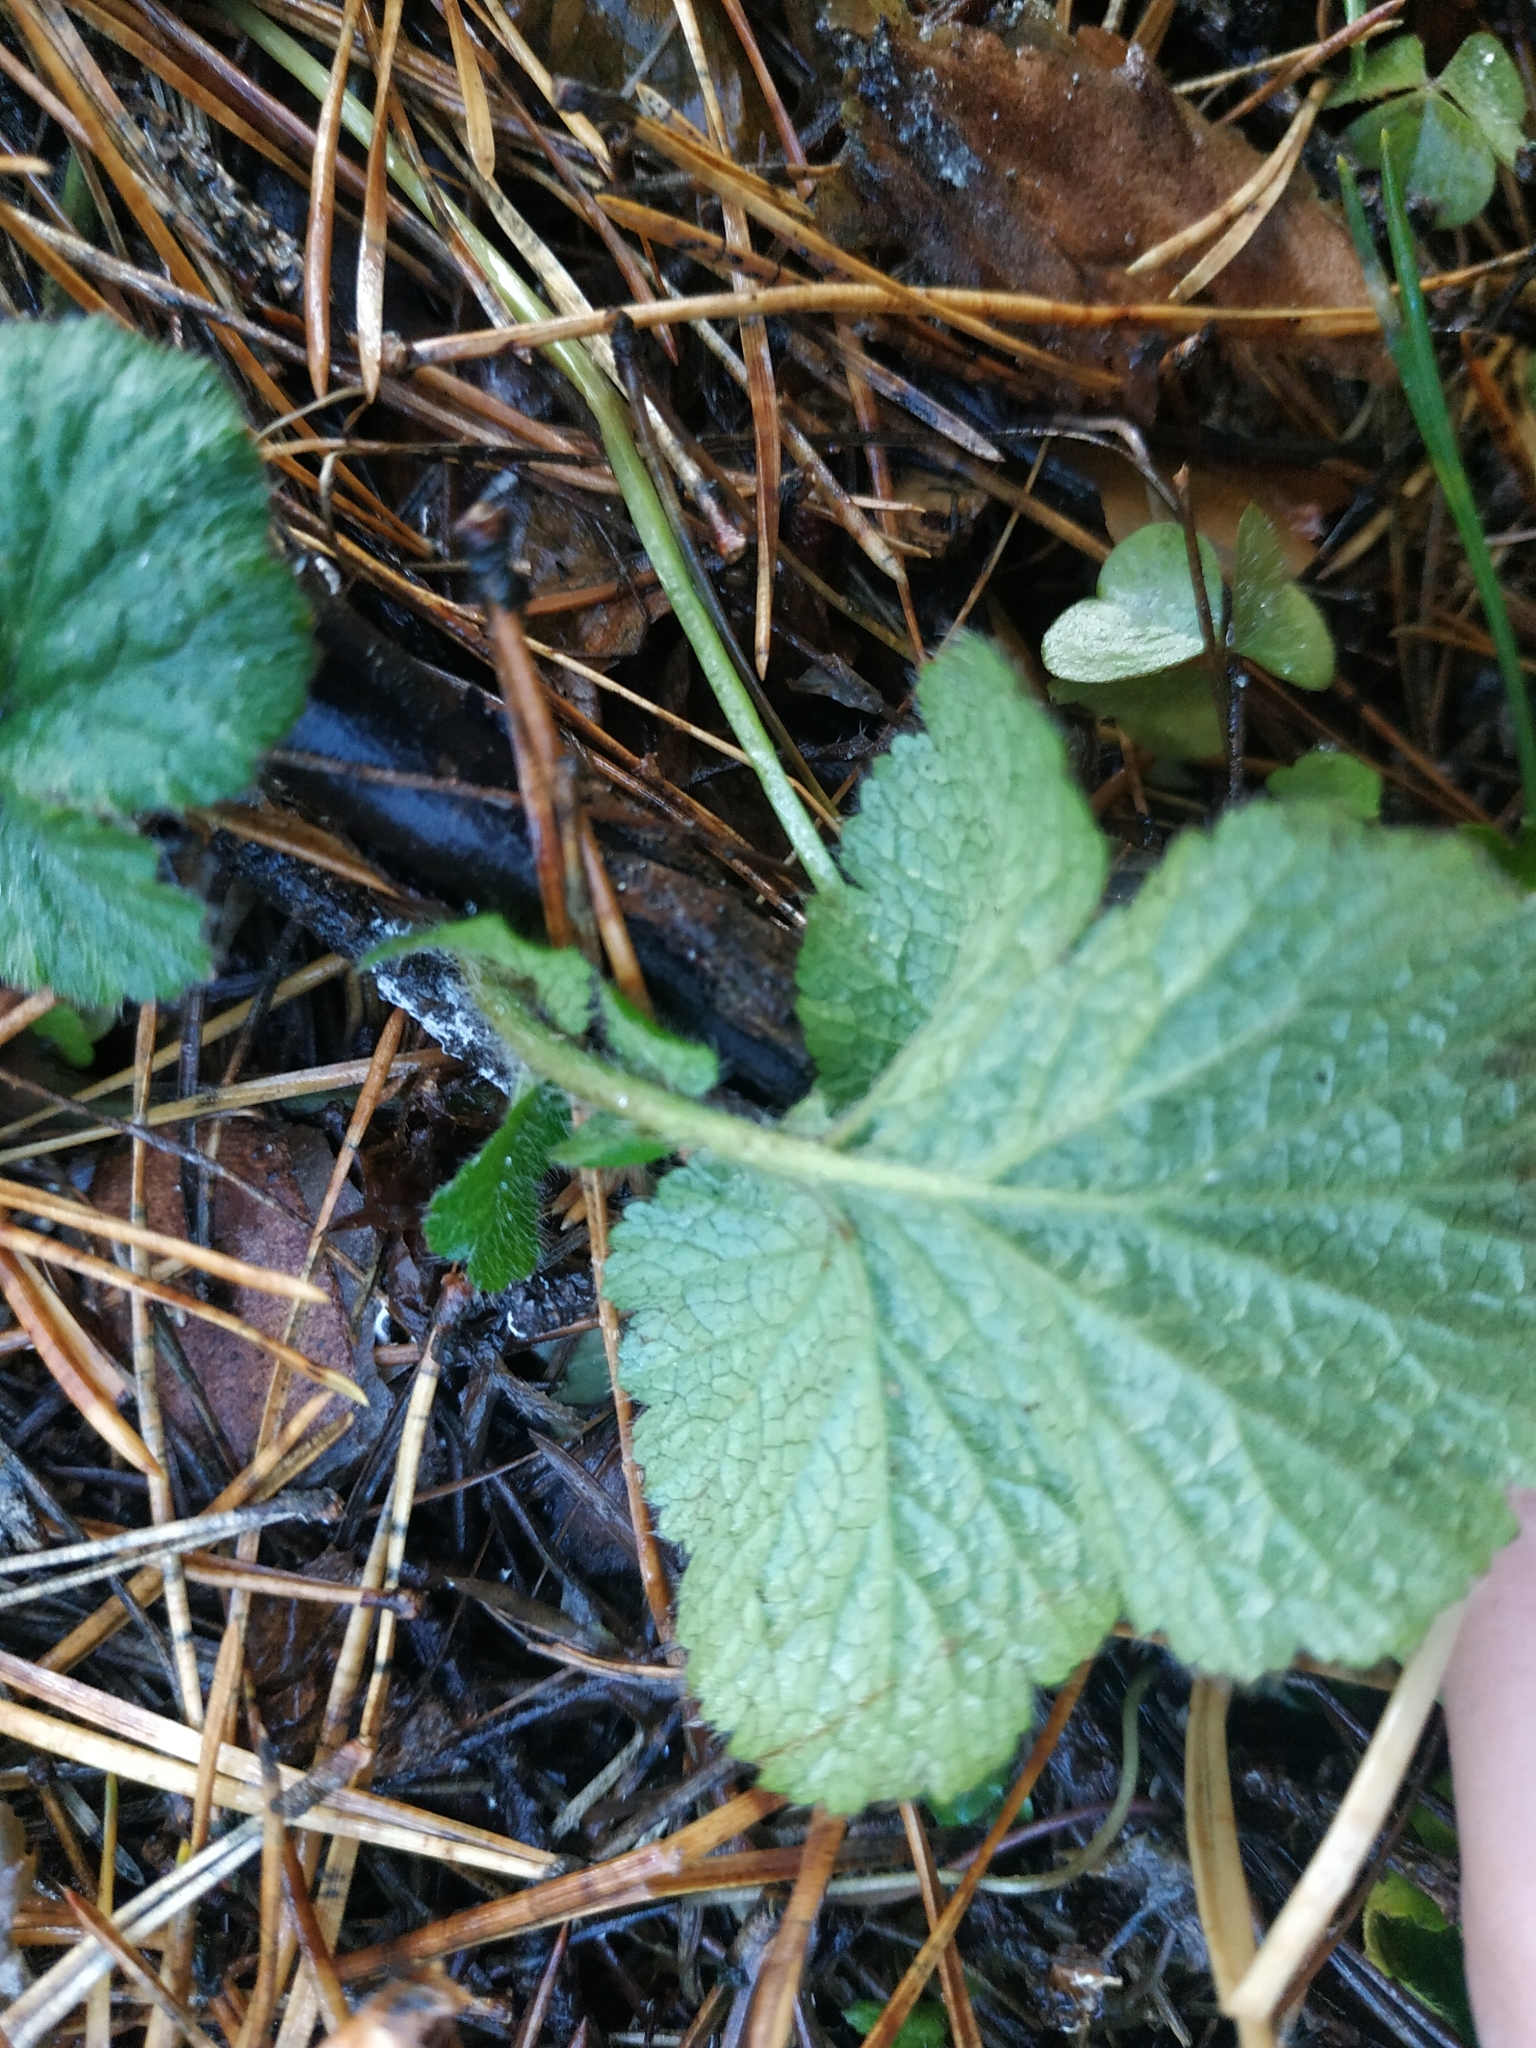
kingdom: Plantae
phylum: Tracheophyta
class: Magnoliopsida
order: Rosales
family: Rosaceae
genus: Geum
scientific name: Geum
